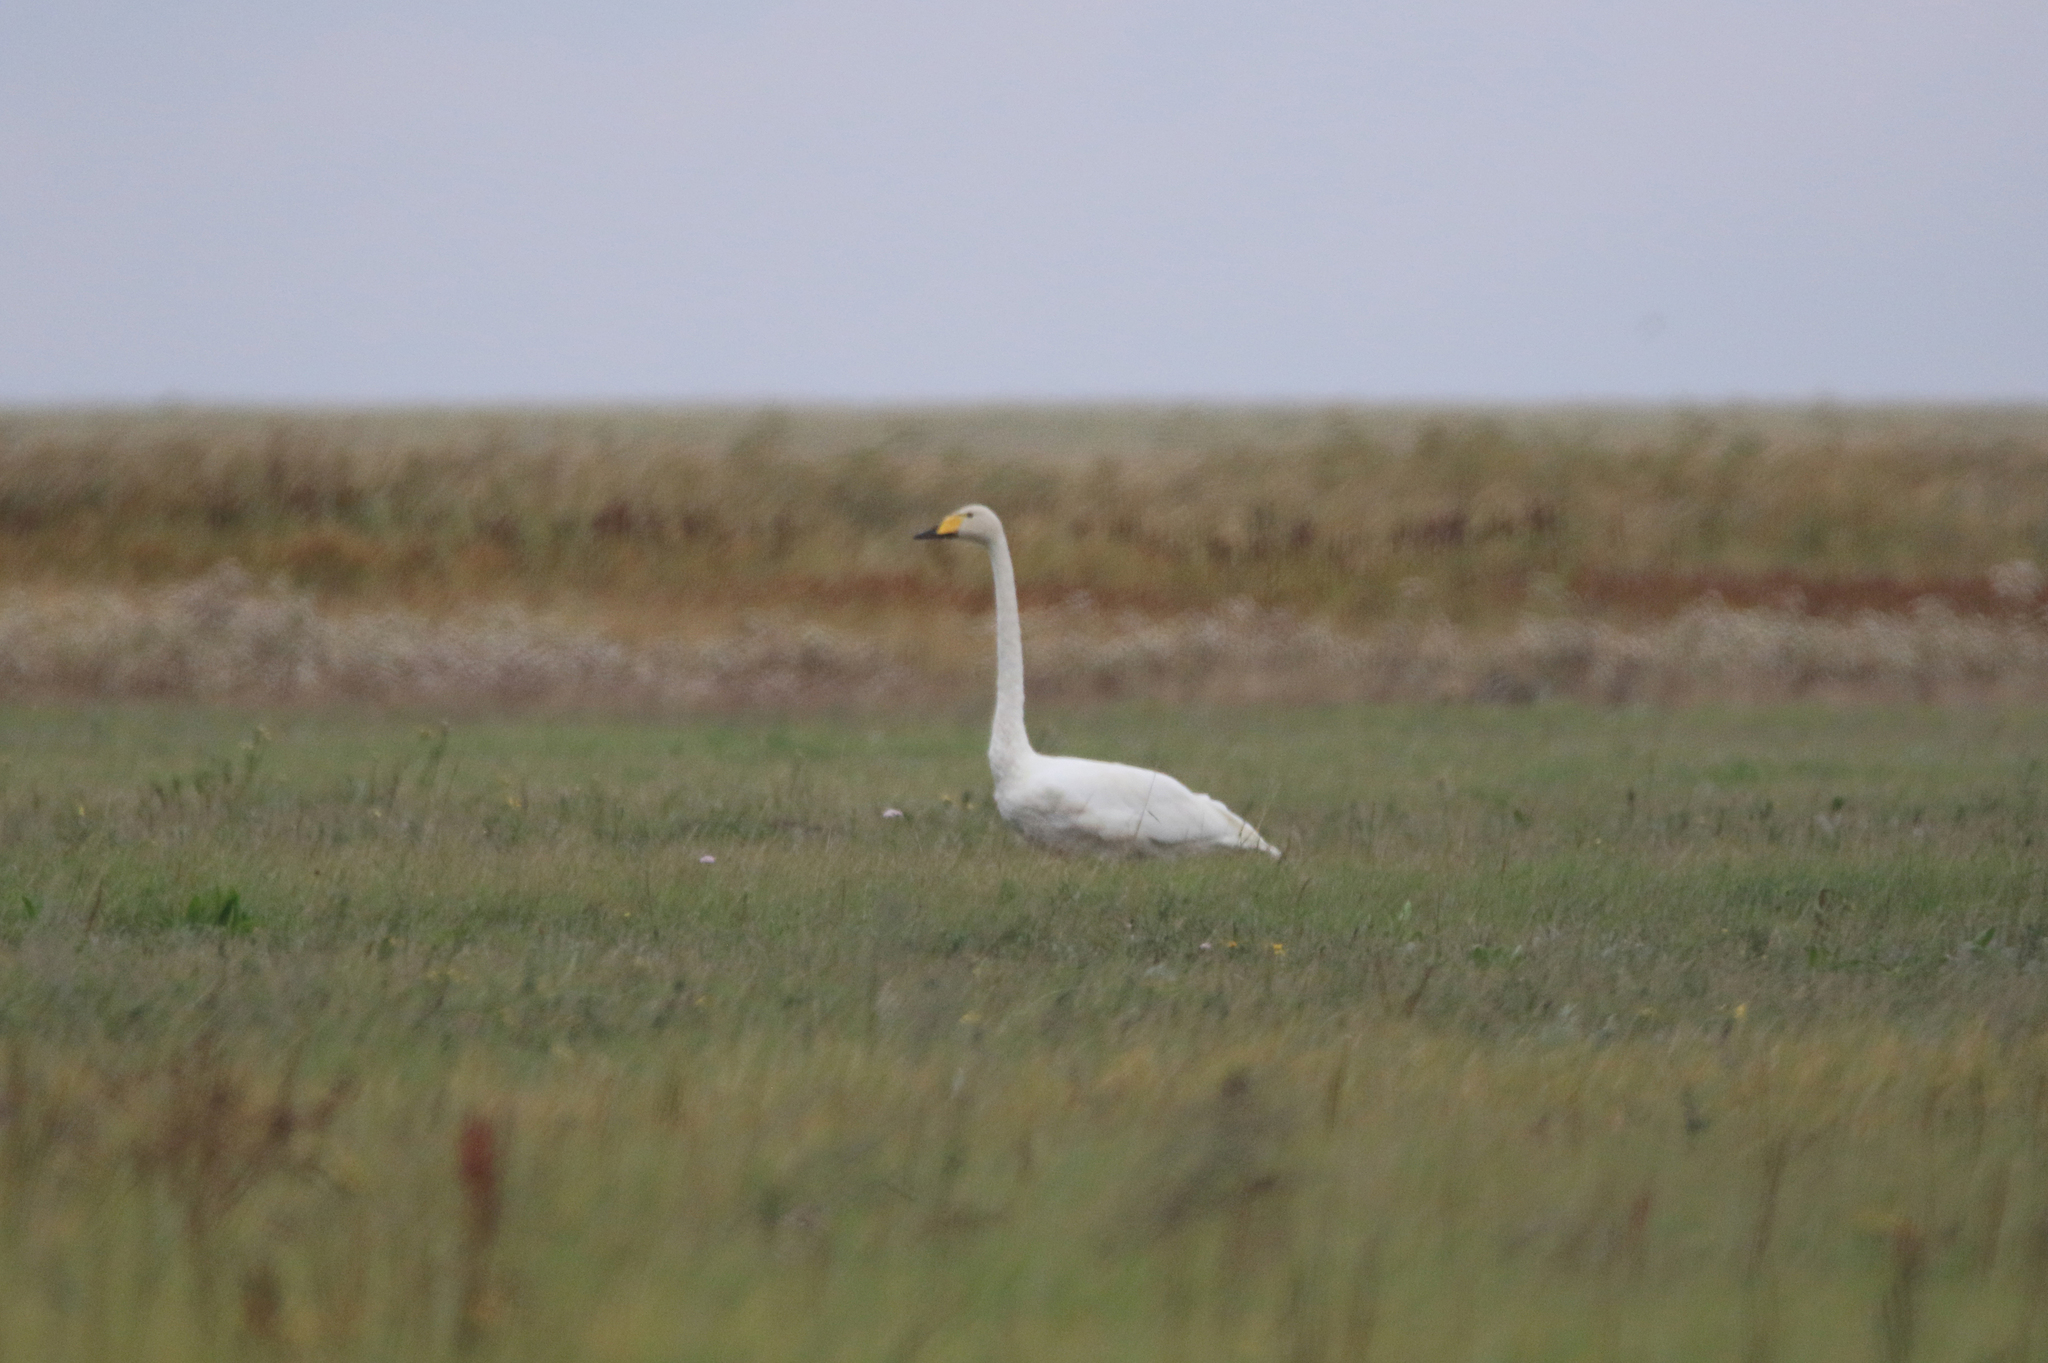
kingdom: Animalia
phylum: Chordata
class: Aves
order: Anseriformes
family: Anatidae
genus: Cygnus
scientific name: Cygnus cygnus
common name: Whooper swan
